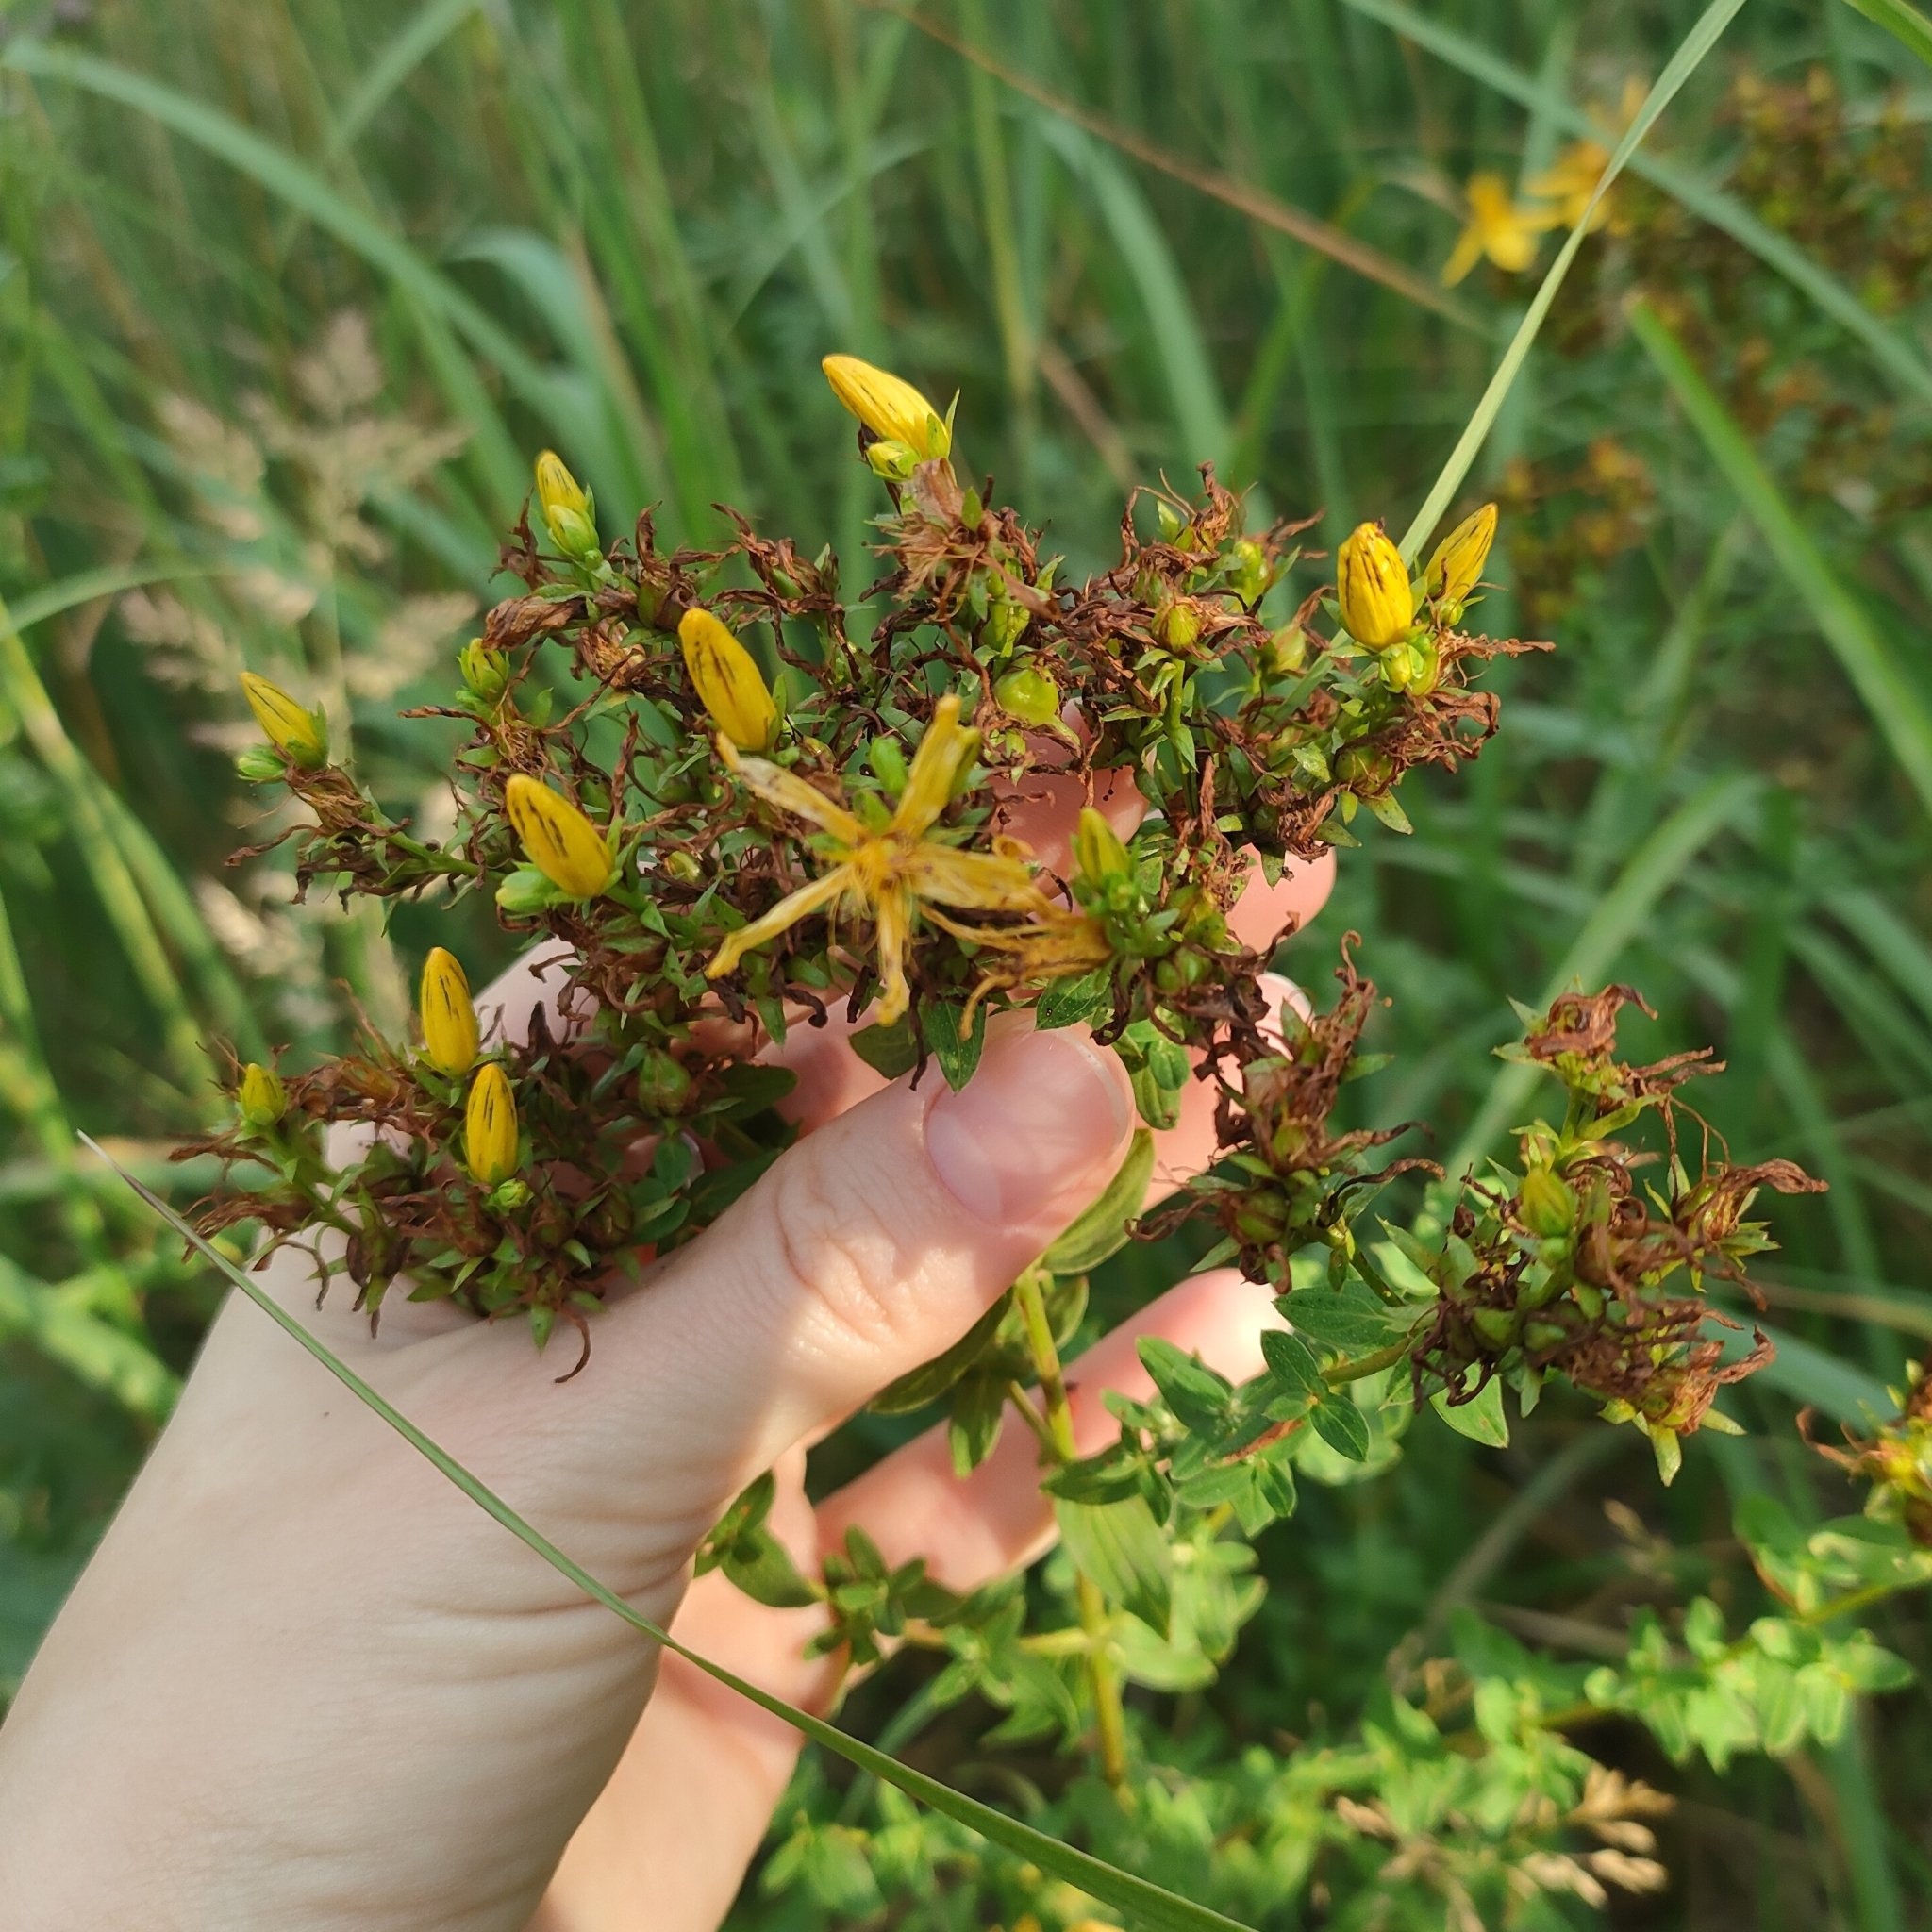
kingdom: Plantae
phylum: Tracheophyta
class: Magnoliopsida
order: Malpighiales
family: Hypericaceae
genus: Hypericum
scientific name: Hypericum perforatum
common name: Common st. johnswort
